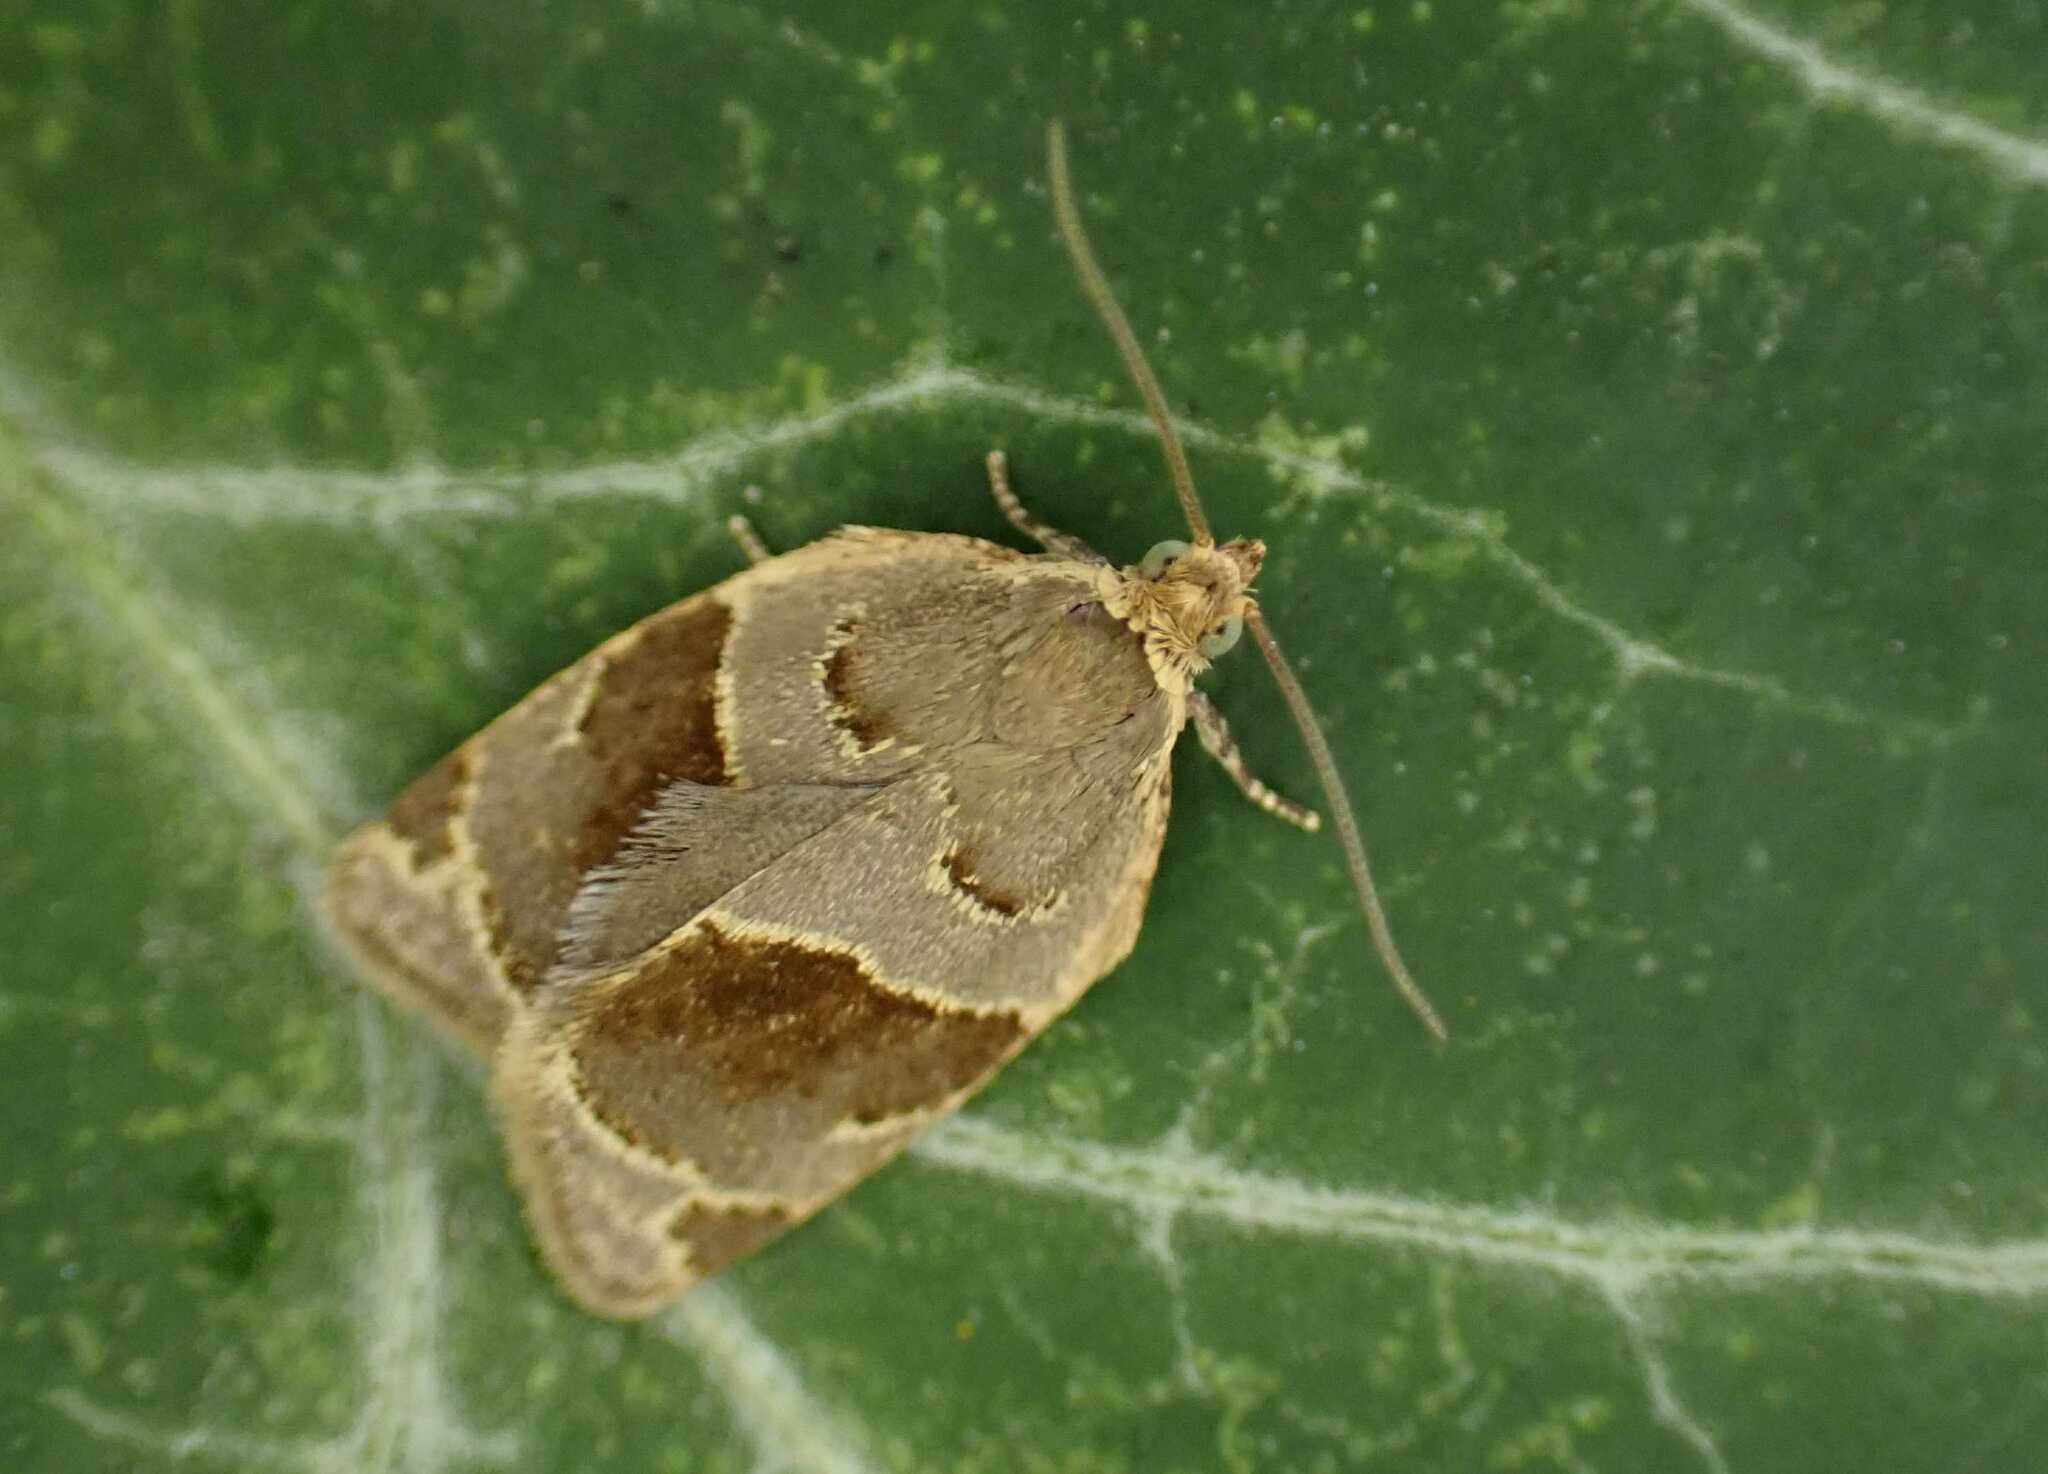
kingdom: Animalia
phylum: Arthropoda
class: Insecta
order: Lepidoptera
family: Tortricidae
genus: Clepsis
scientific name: Clepsis dumicolana
